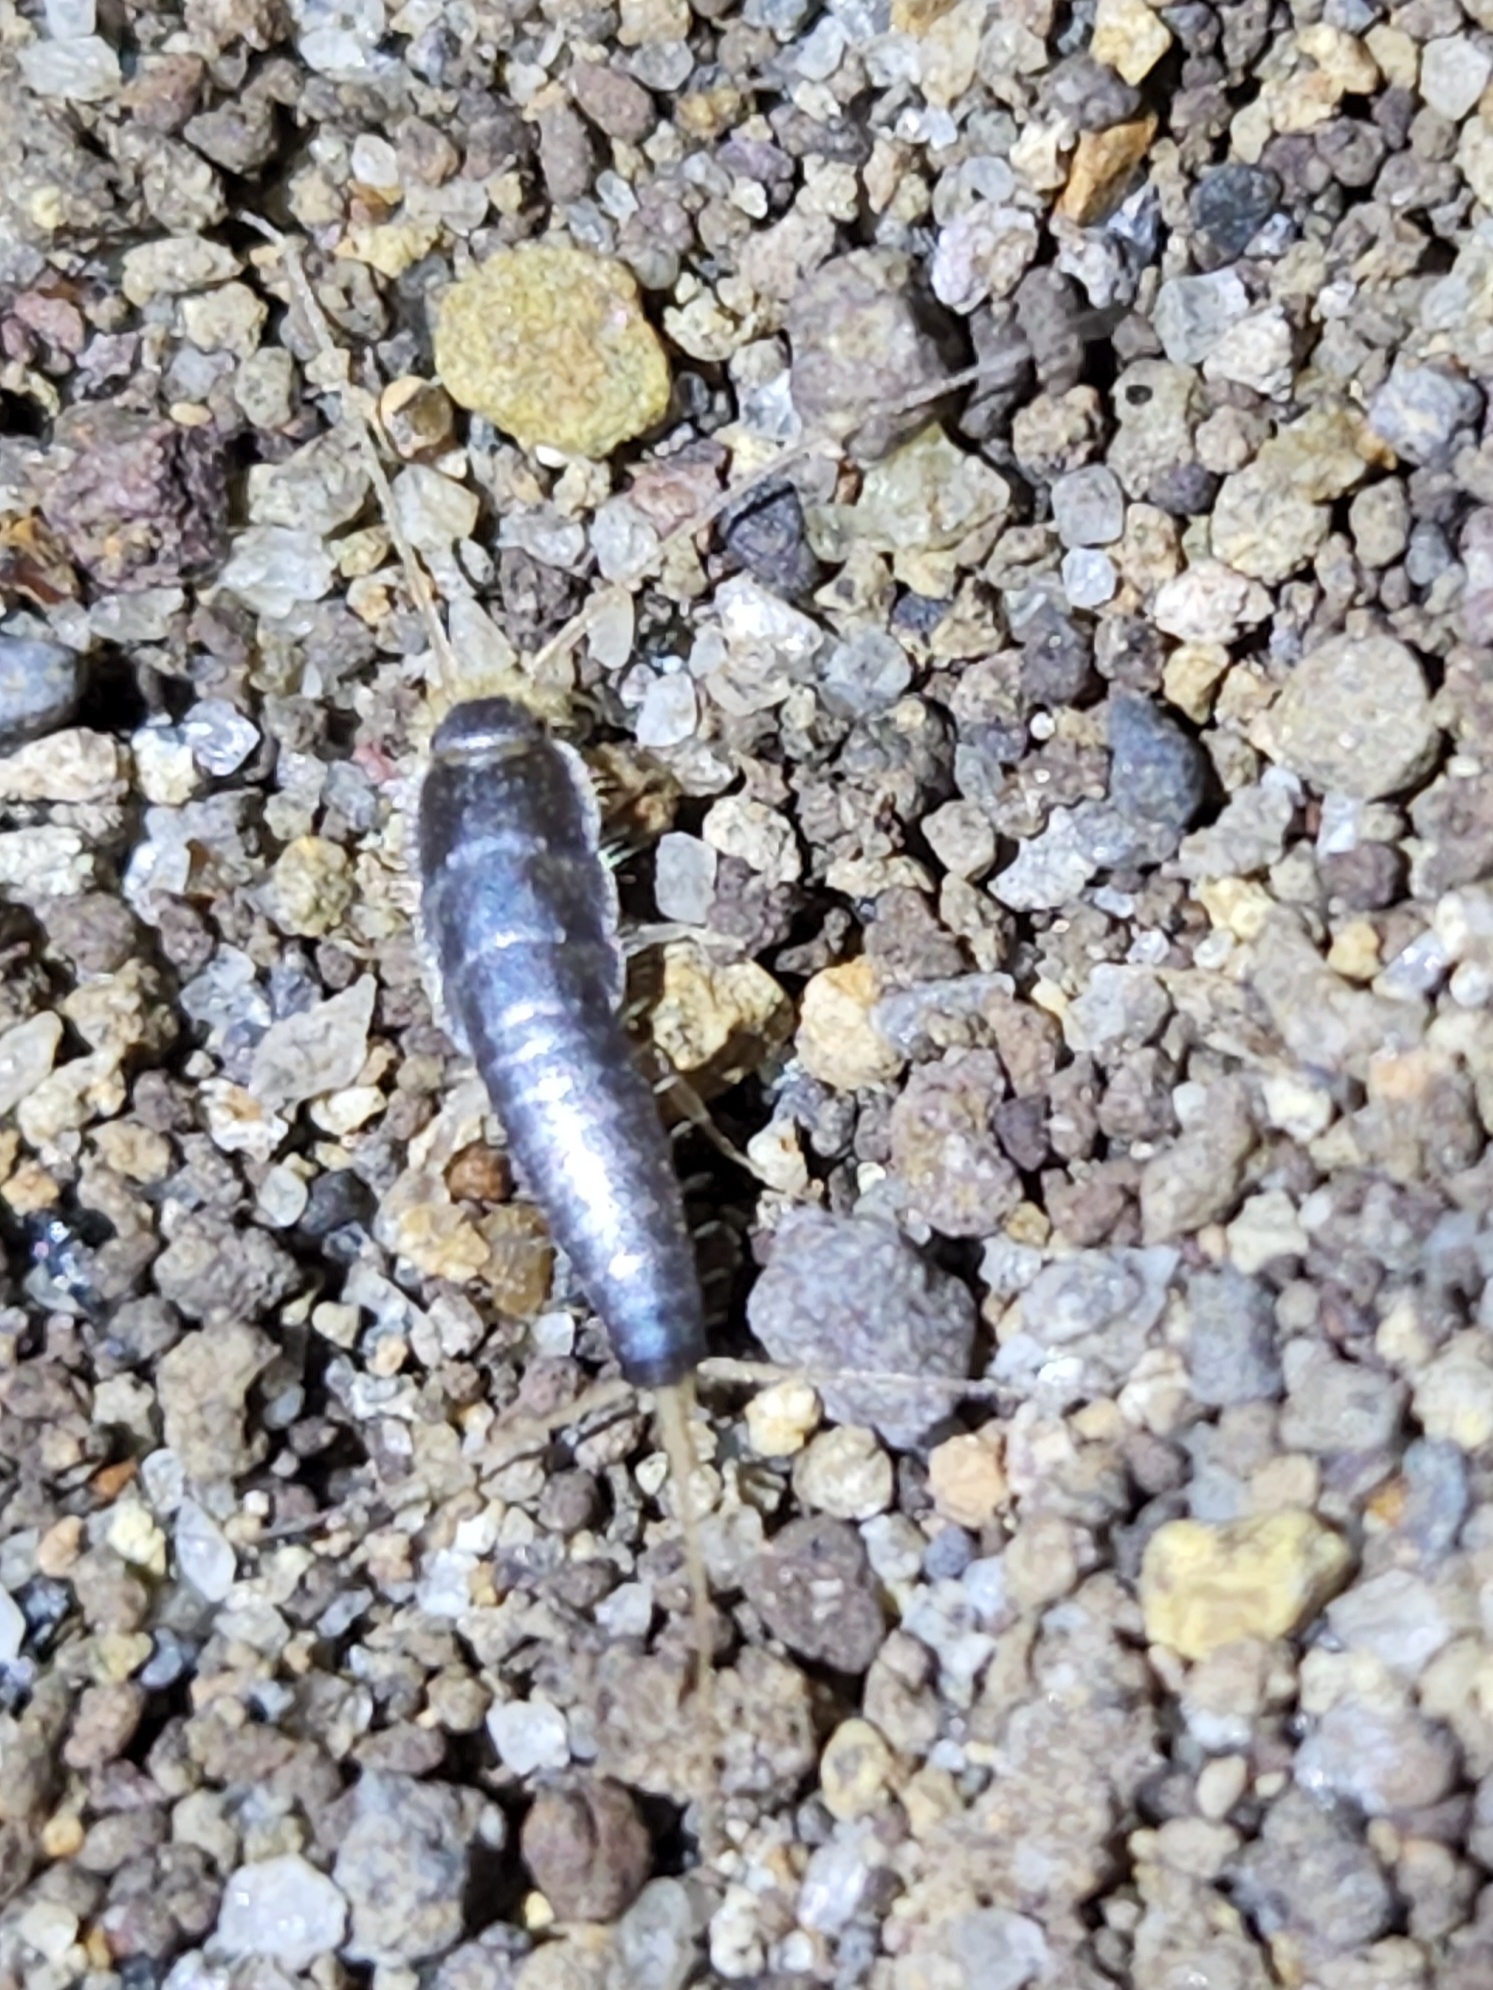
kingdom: Animalia
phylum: Arthropoda
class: Insecta
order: Zygentoma
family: Lepismatidae
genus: Ctenolepisma
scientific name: Ctenolepisma longicaudatum
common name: Silverfish
